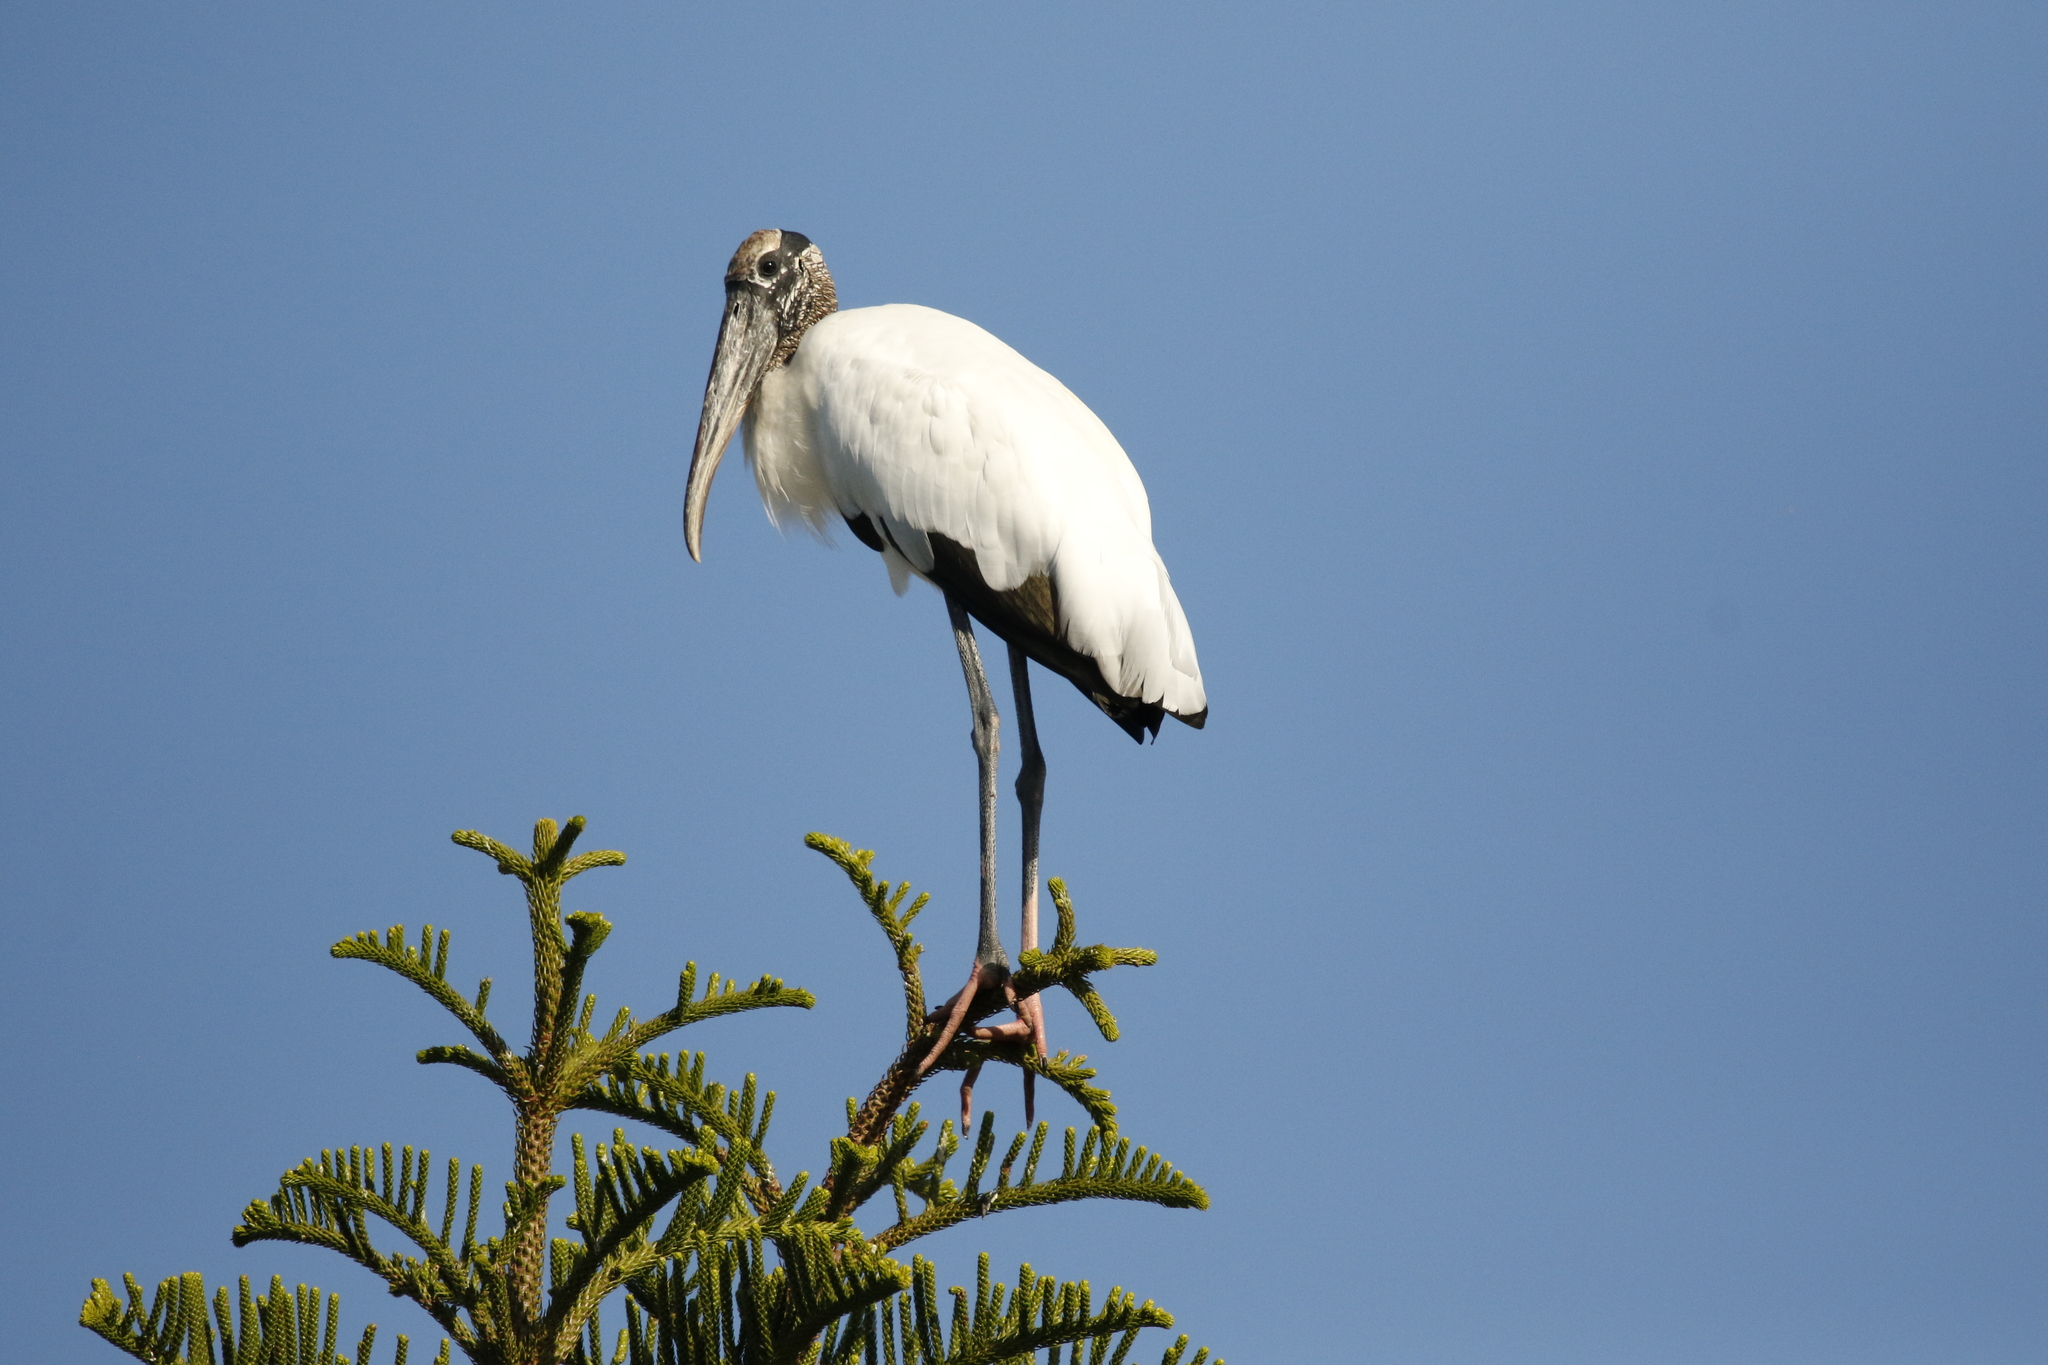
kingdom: Animalia
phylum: Chordata
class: Aves
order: Ciconiiformes
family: Ciconiidae
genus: Mycteria
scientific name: Mycteria americana
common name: Wood stork
